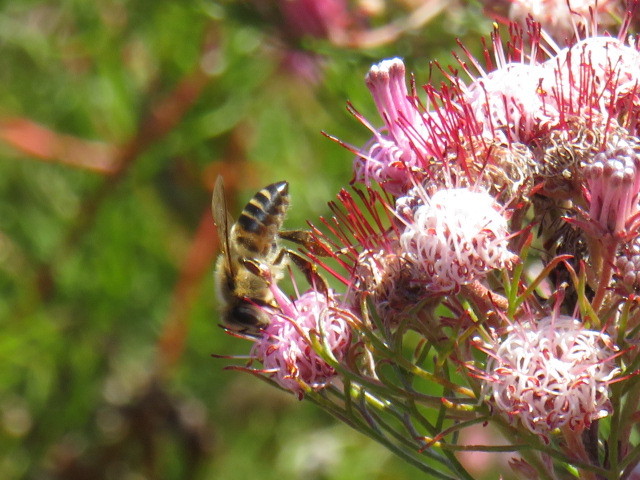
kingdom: Animalia
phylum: Arthropoda
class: Insecta
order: Hymenoptera
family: Apidae
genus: Apis
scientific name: Apis mellifera
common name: Honey bee
